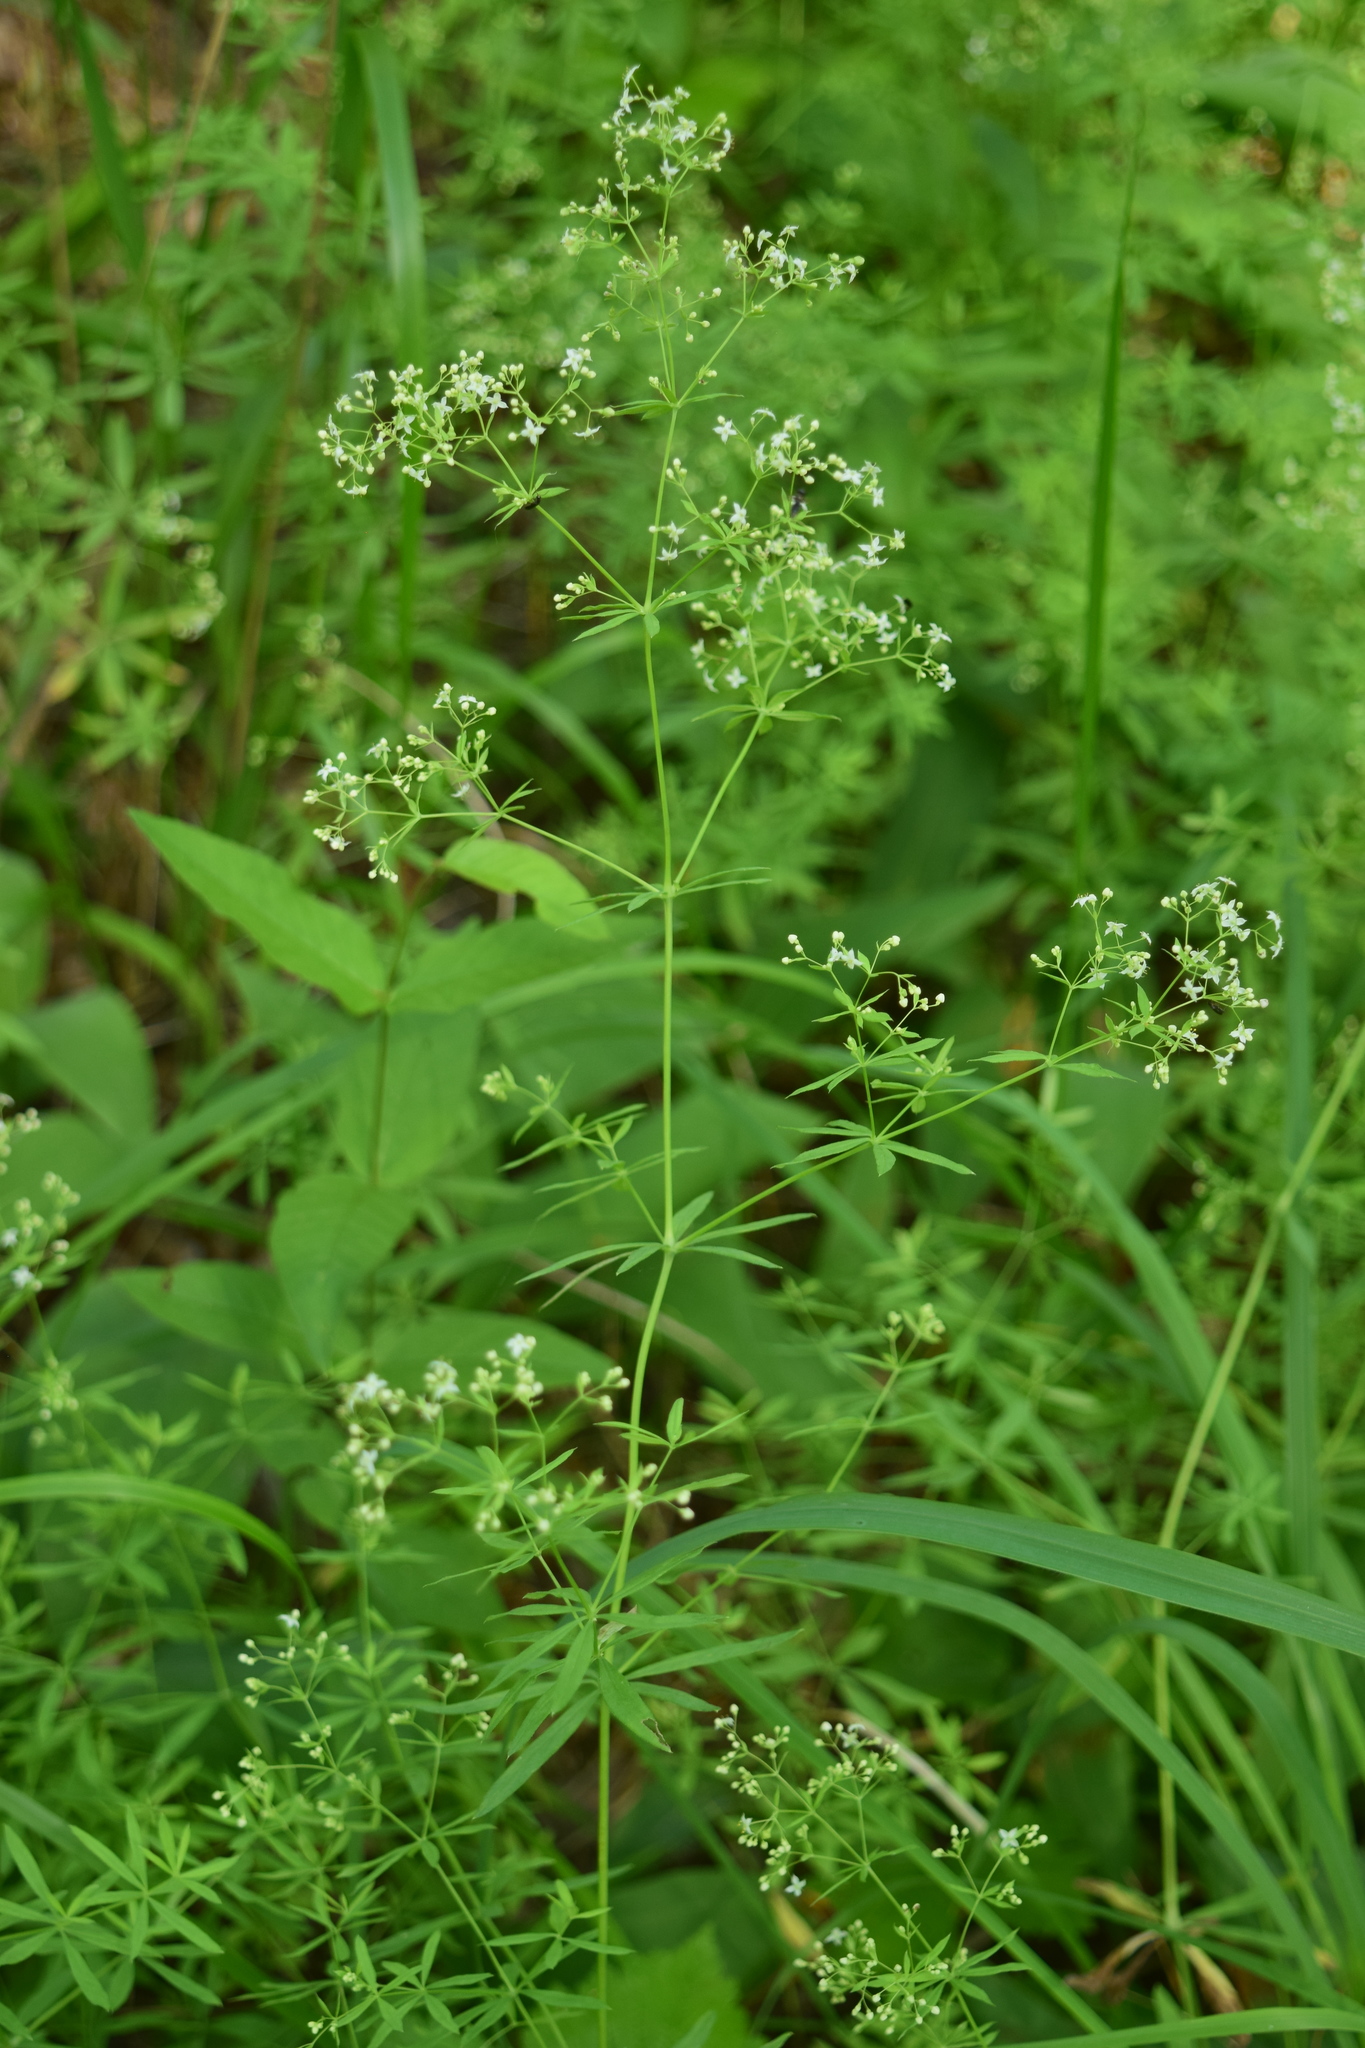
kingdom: Plantae
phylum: Tracheophyta
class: Magnoliopsida
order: Gentianales
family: Rubiaceae
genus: Galium
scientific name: Galium intermedium
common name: Bedstraw
